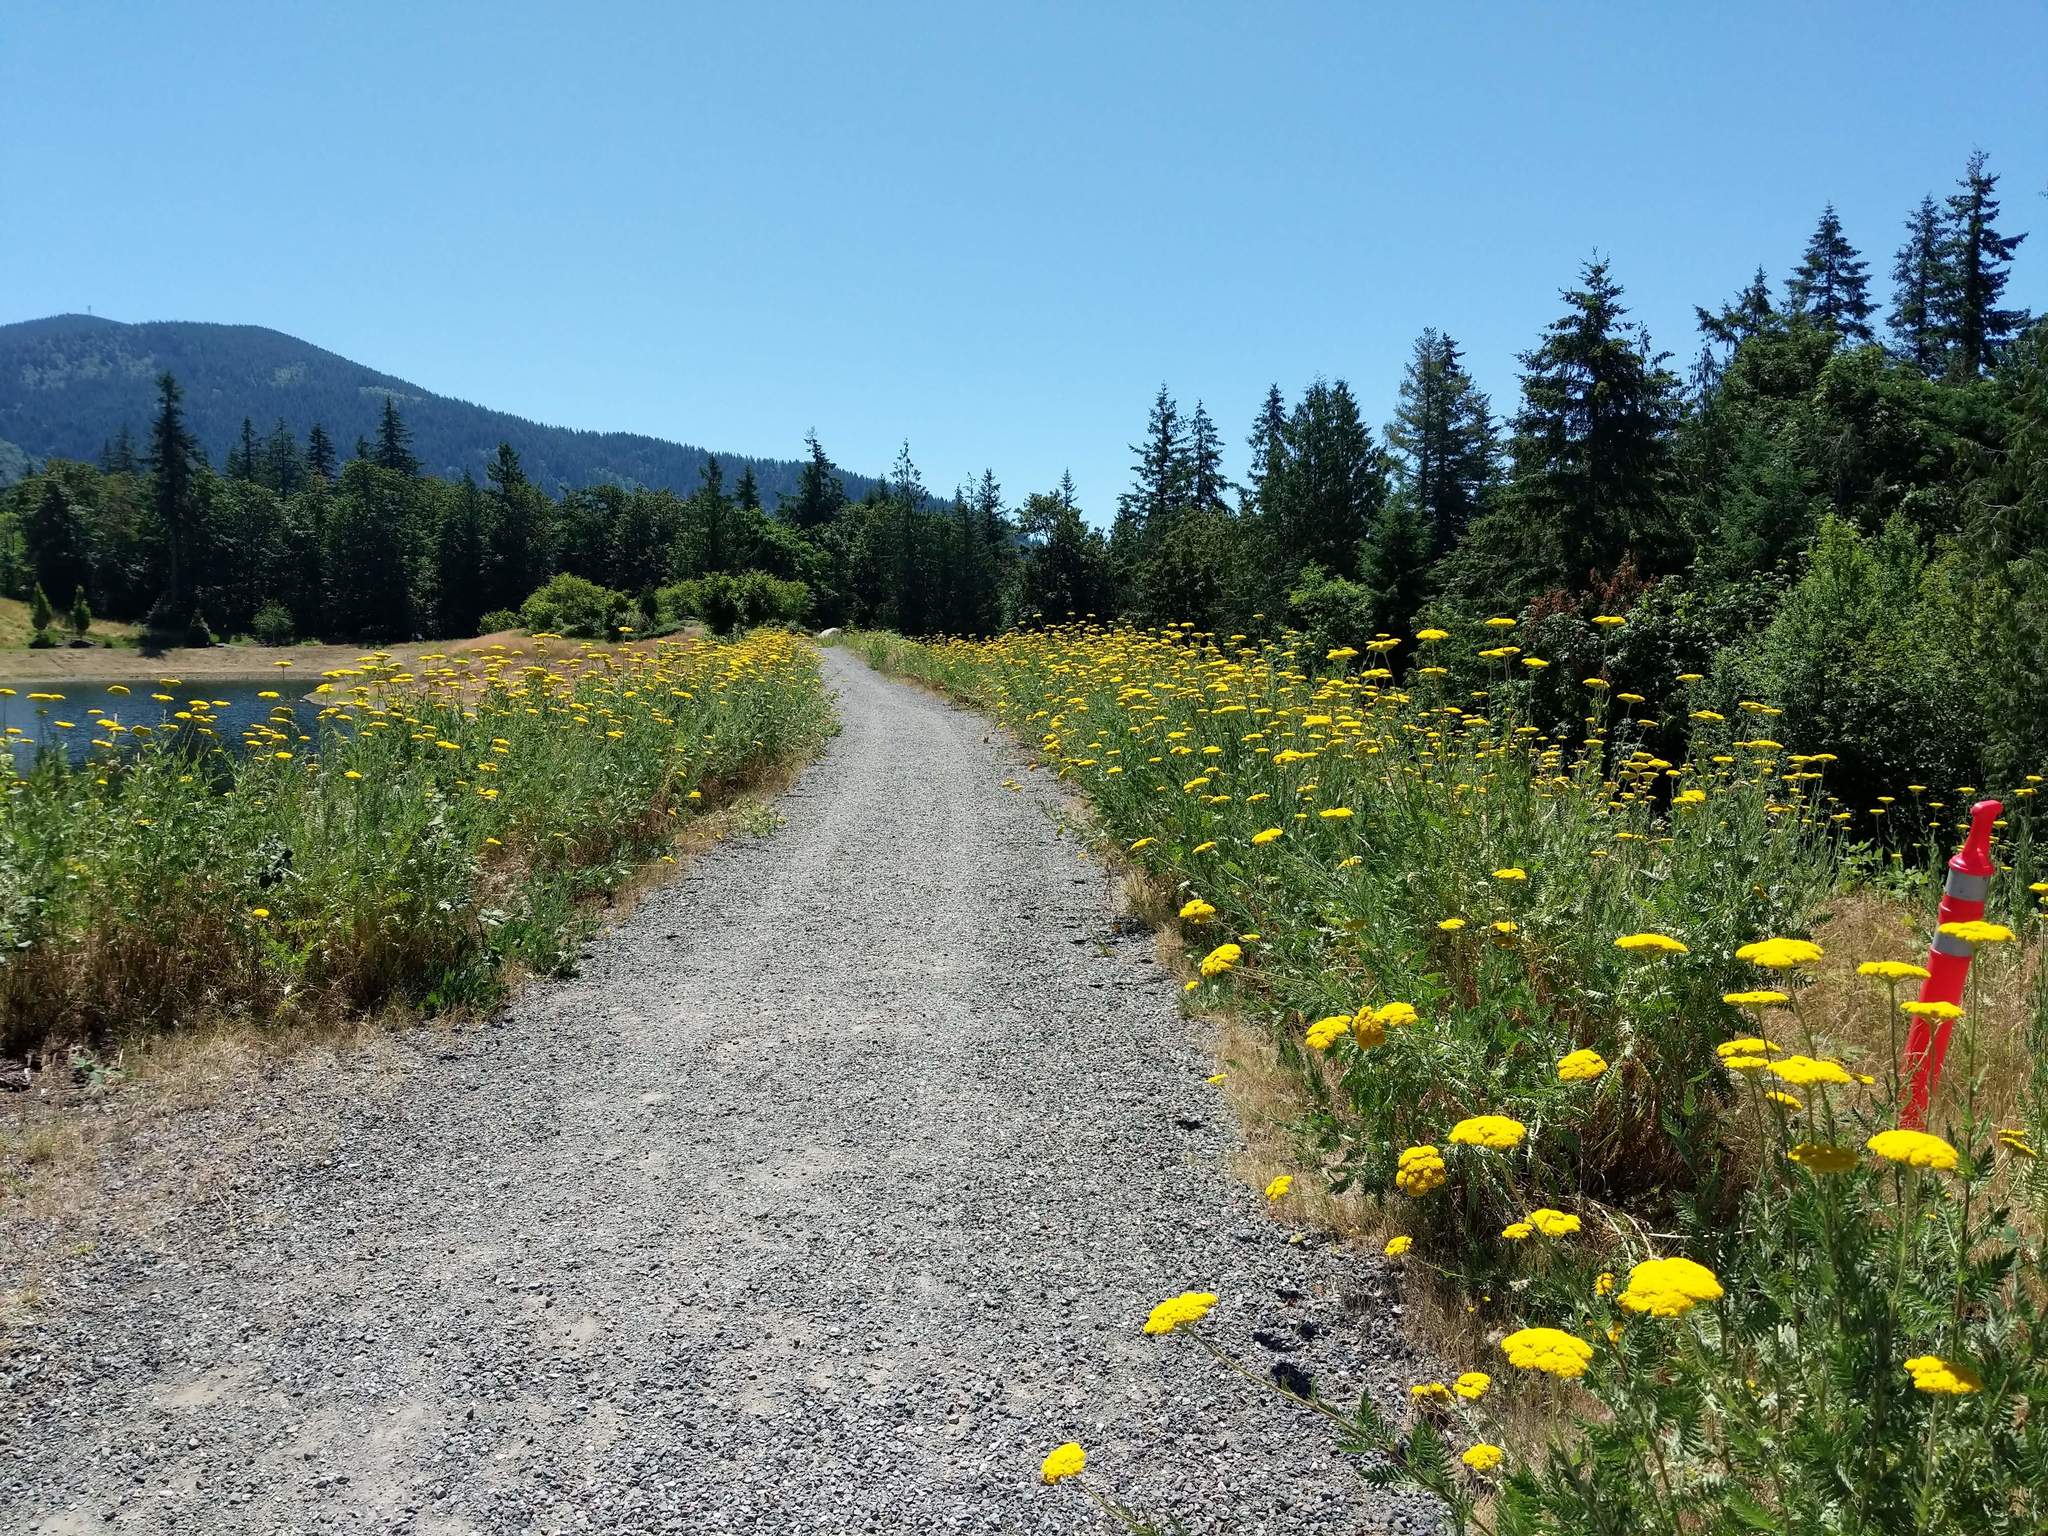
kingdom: Plantae
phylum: Tracheophyta
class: Magnoliopsida
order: Asterales
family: Asteraceae
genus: Achillea
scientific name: Achillea filipendulina
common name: Fernleaf yarrow
